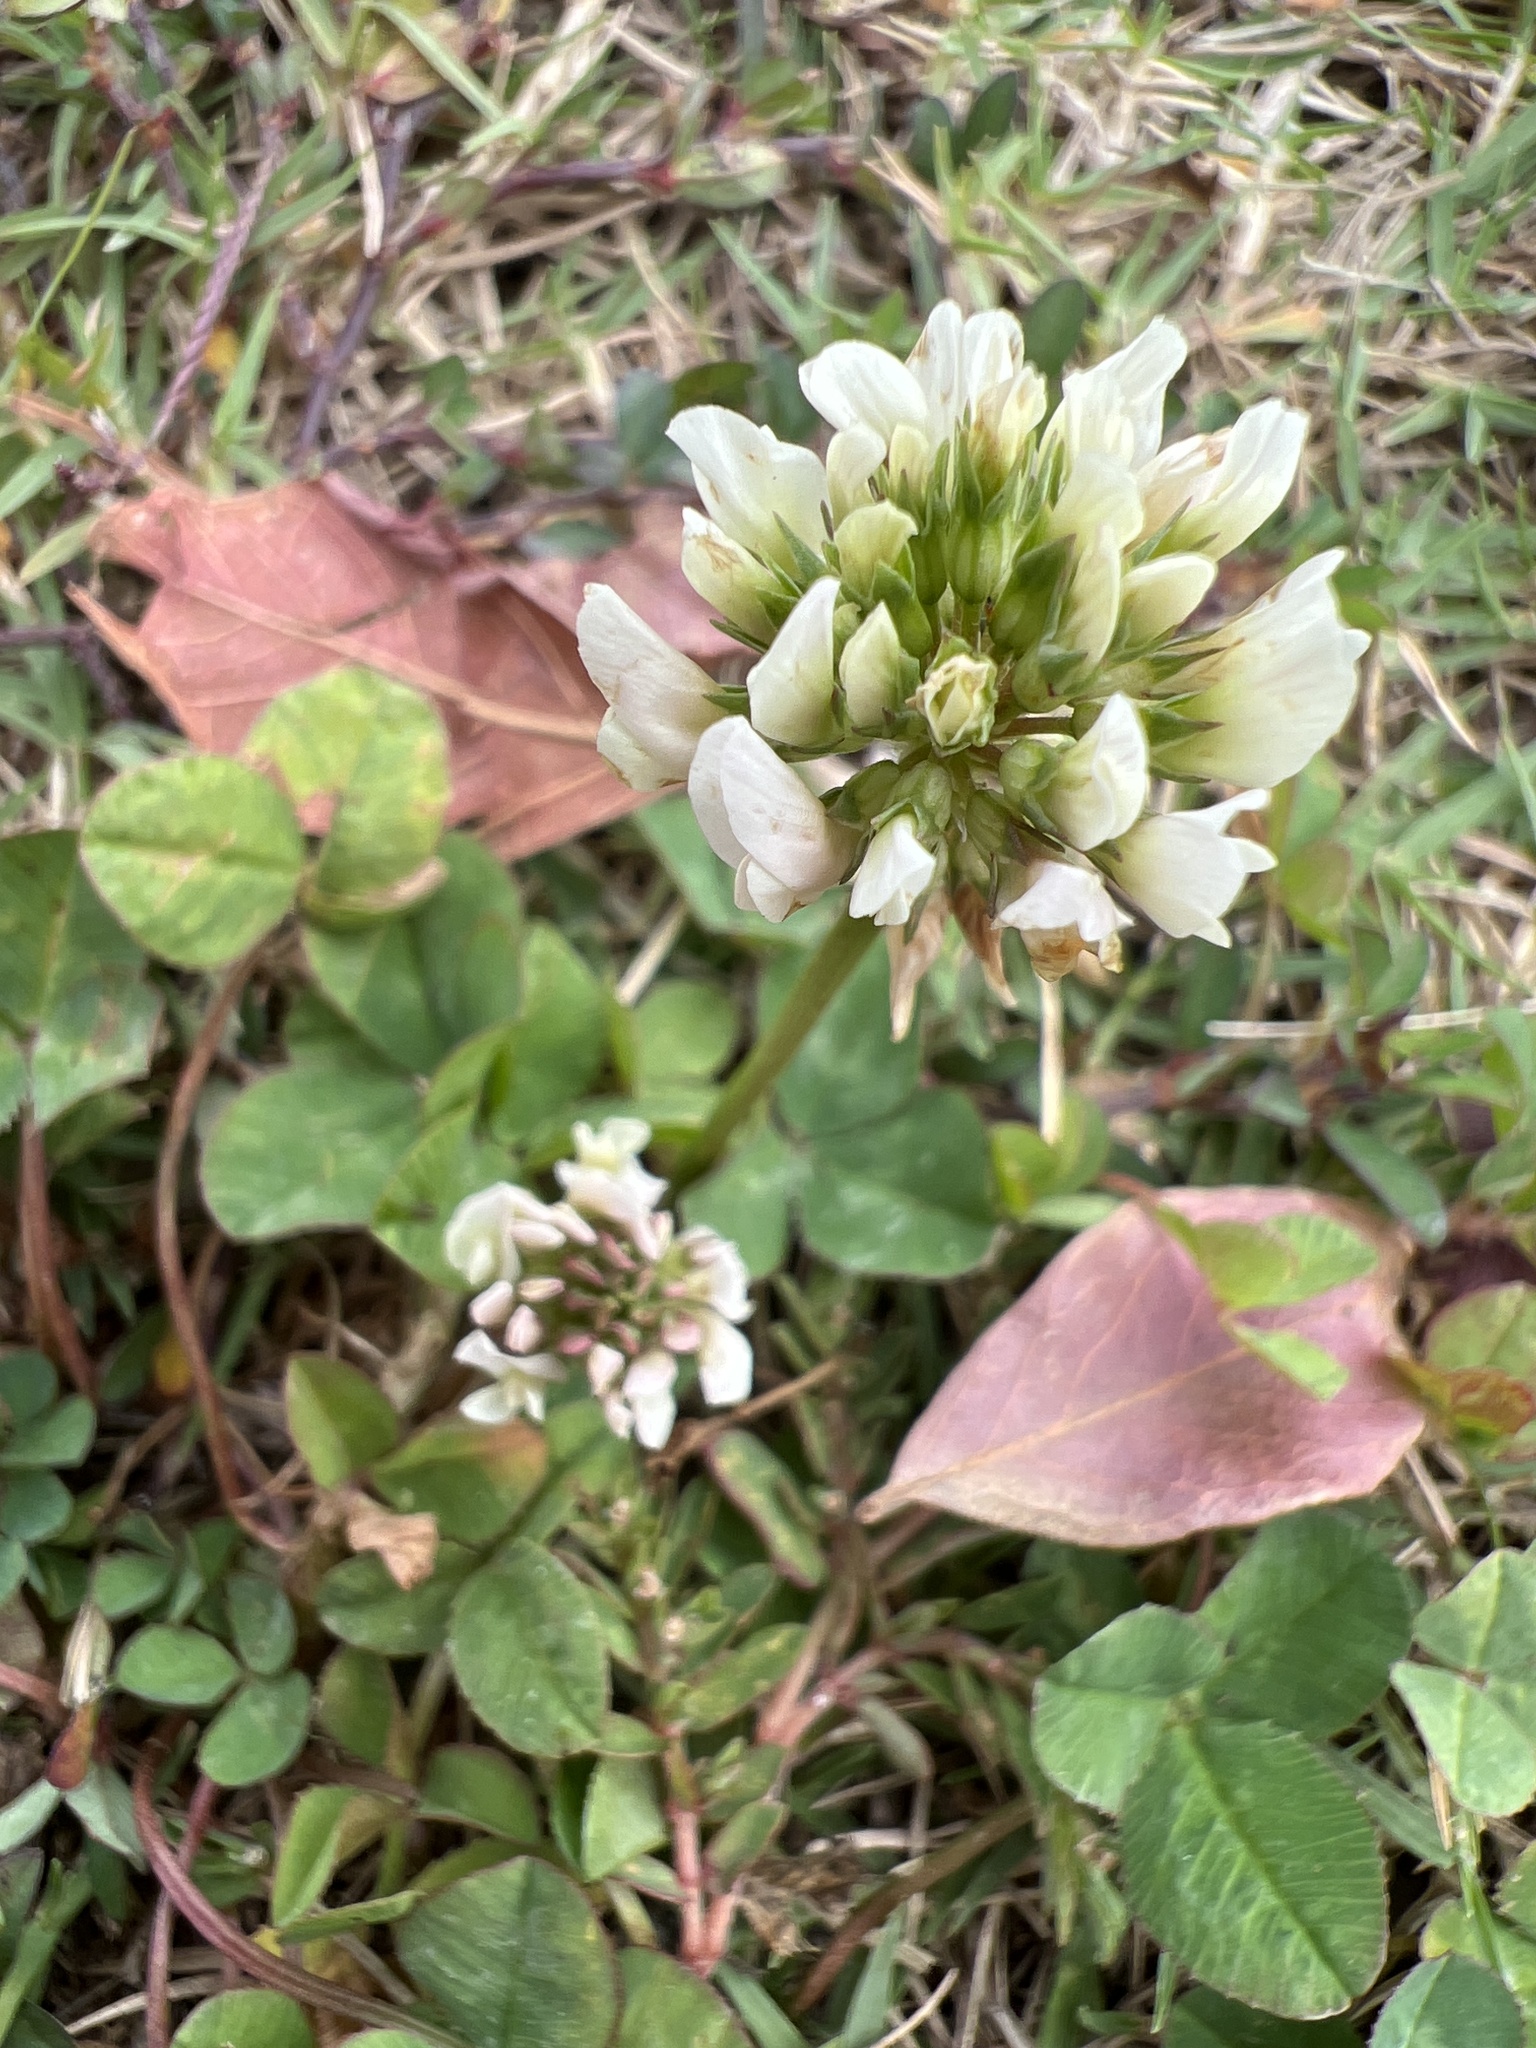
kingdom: Plantae
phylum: Tracheophyta
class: Magnoliopsida
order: Fabales
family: Fabaceae
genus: Trifolium
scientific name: Trifolium repens
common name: White clover
